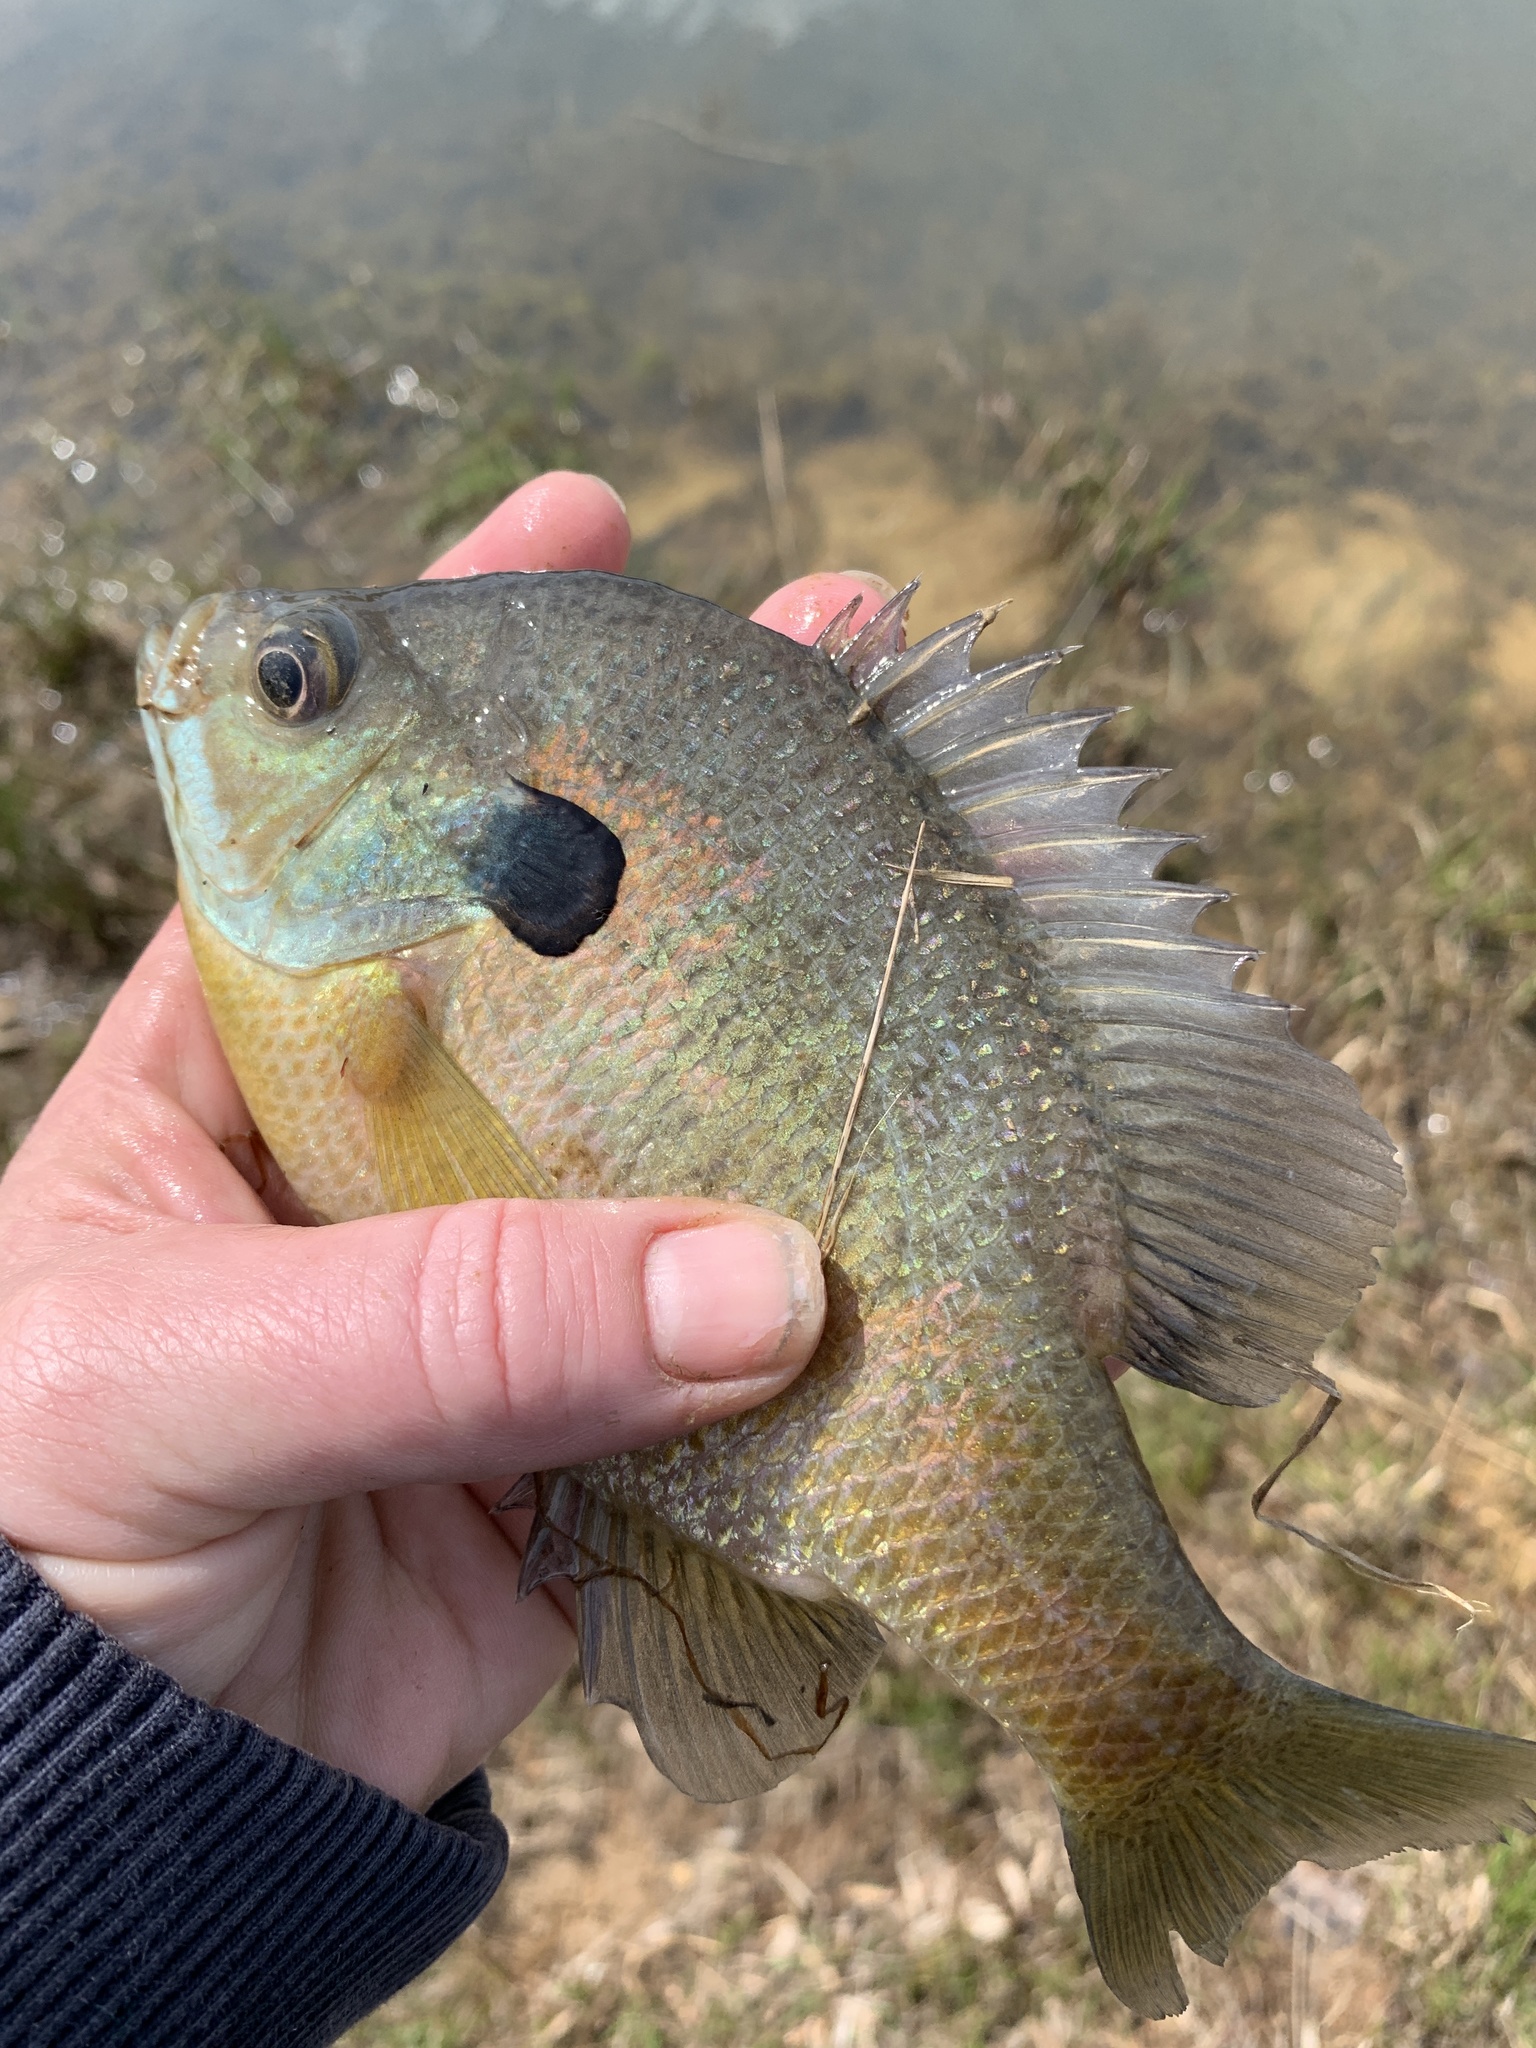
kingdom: Animalia
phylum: Chordata
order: Perciformes
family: Centrarchidae
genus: Lepomis
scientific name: Lepomis macrochirus
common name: Bluegill
